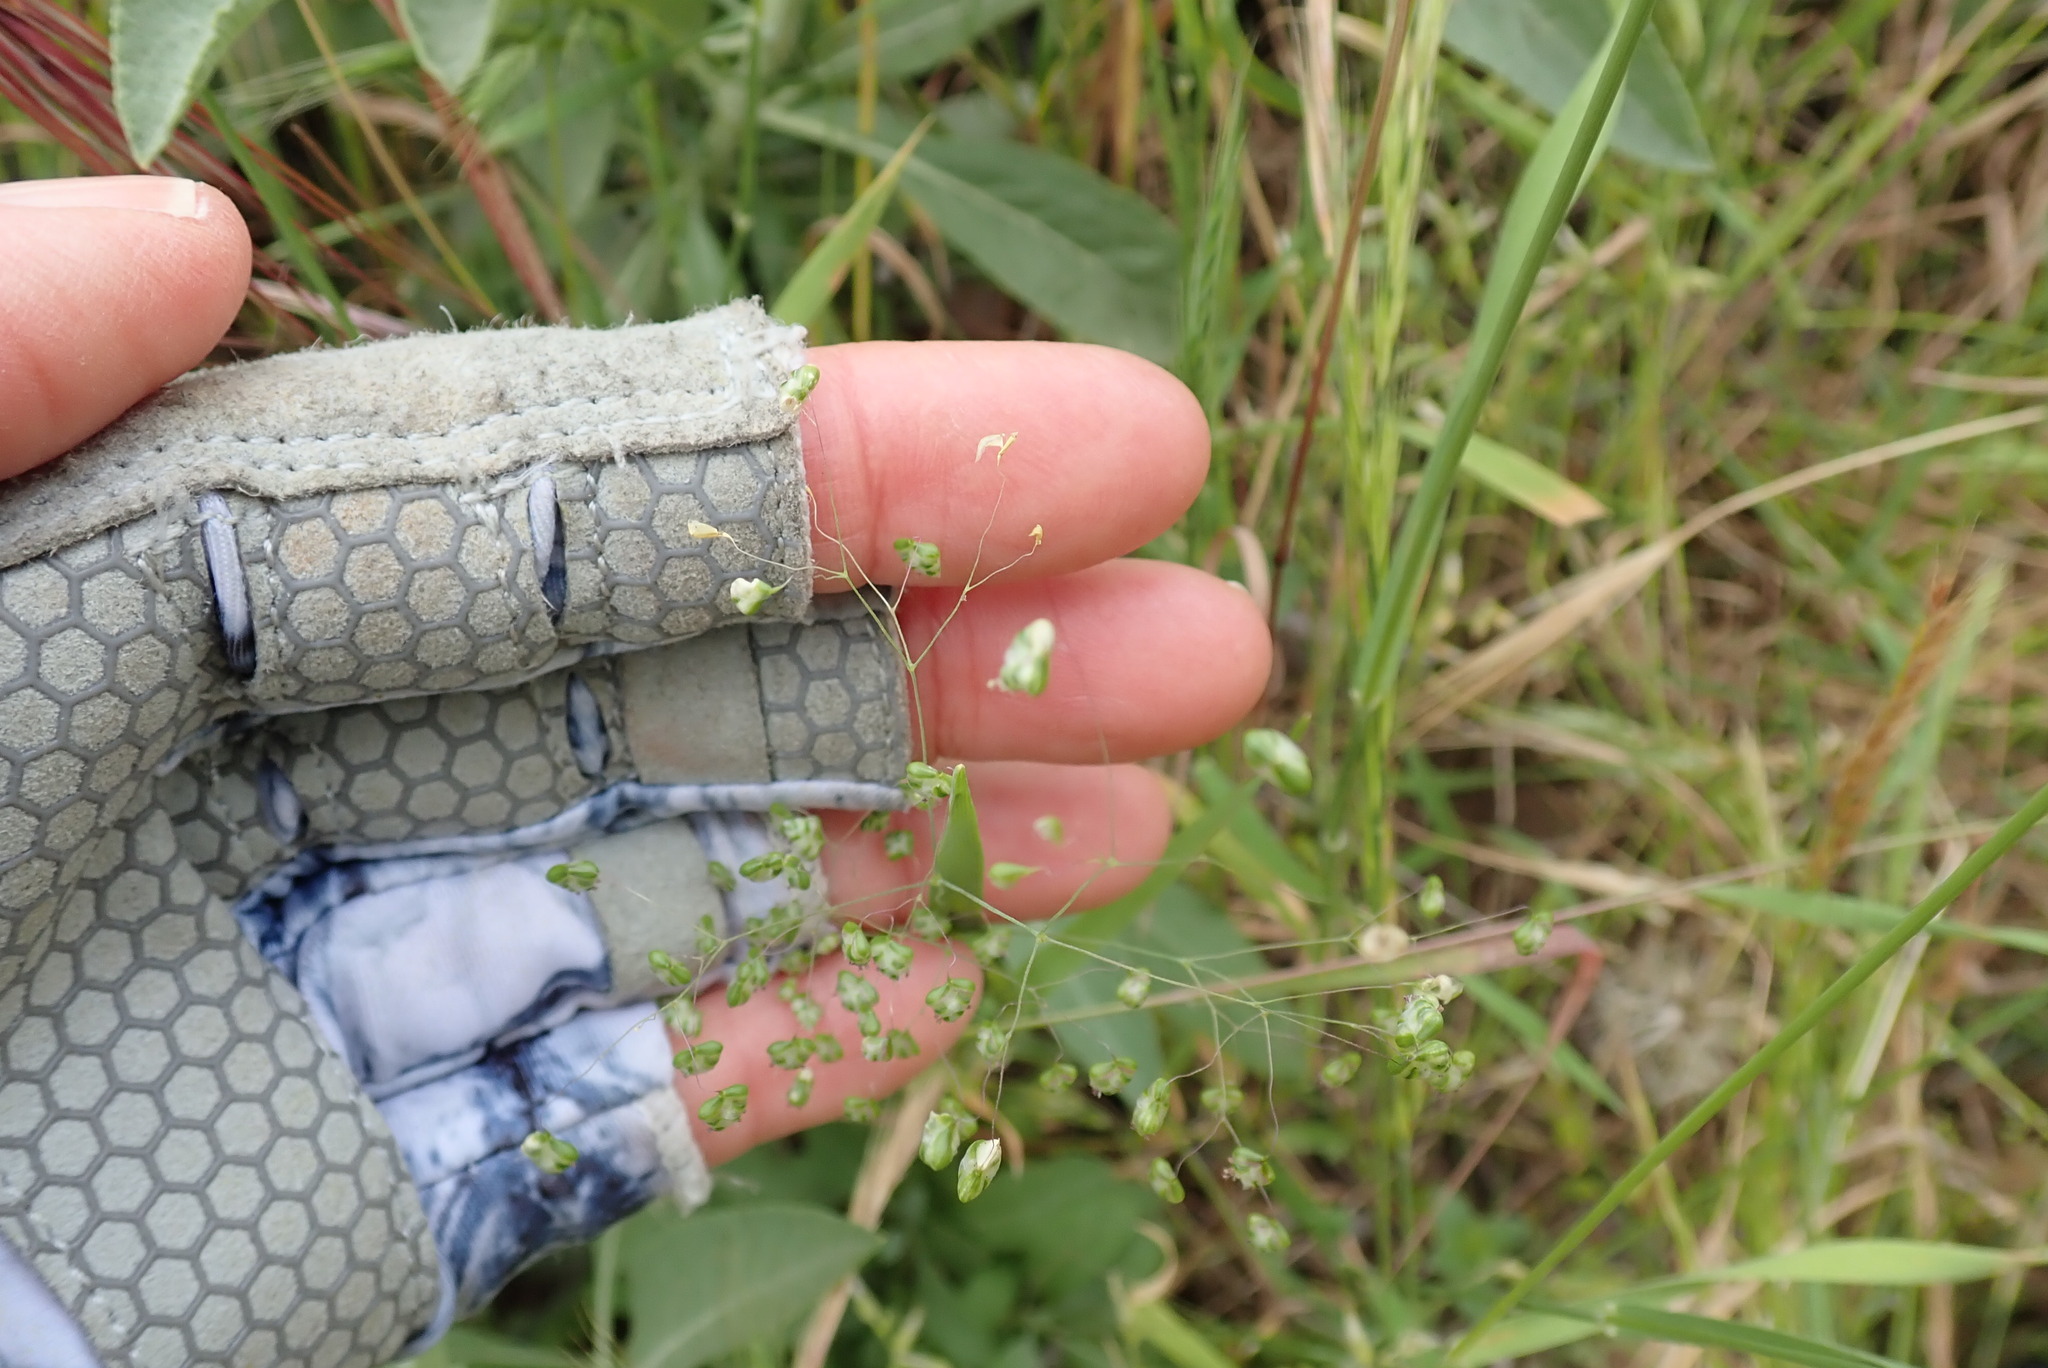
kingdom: Plantae
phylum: Tracheophyta
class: Liliopsida
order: Poales
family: Poaceae
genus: Briza
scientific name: Briza minor
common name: Lesser quaking-grass
